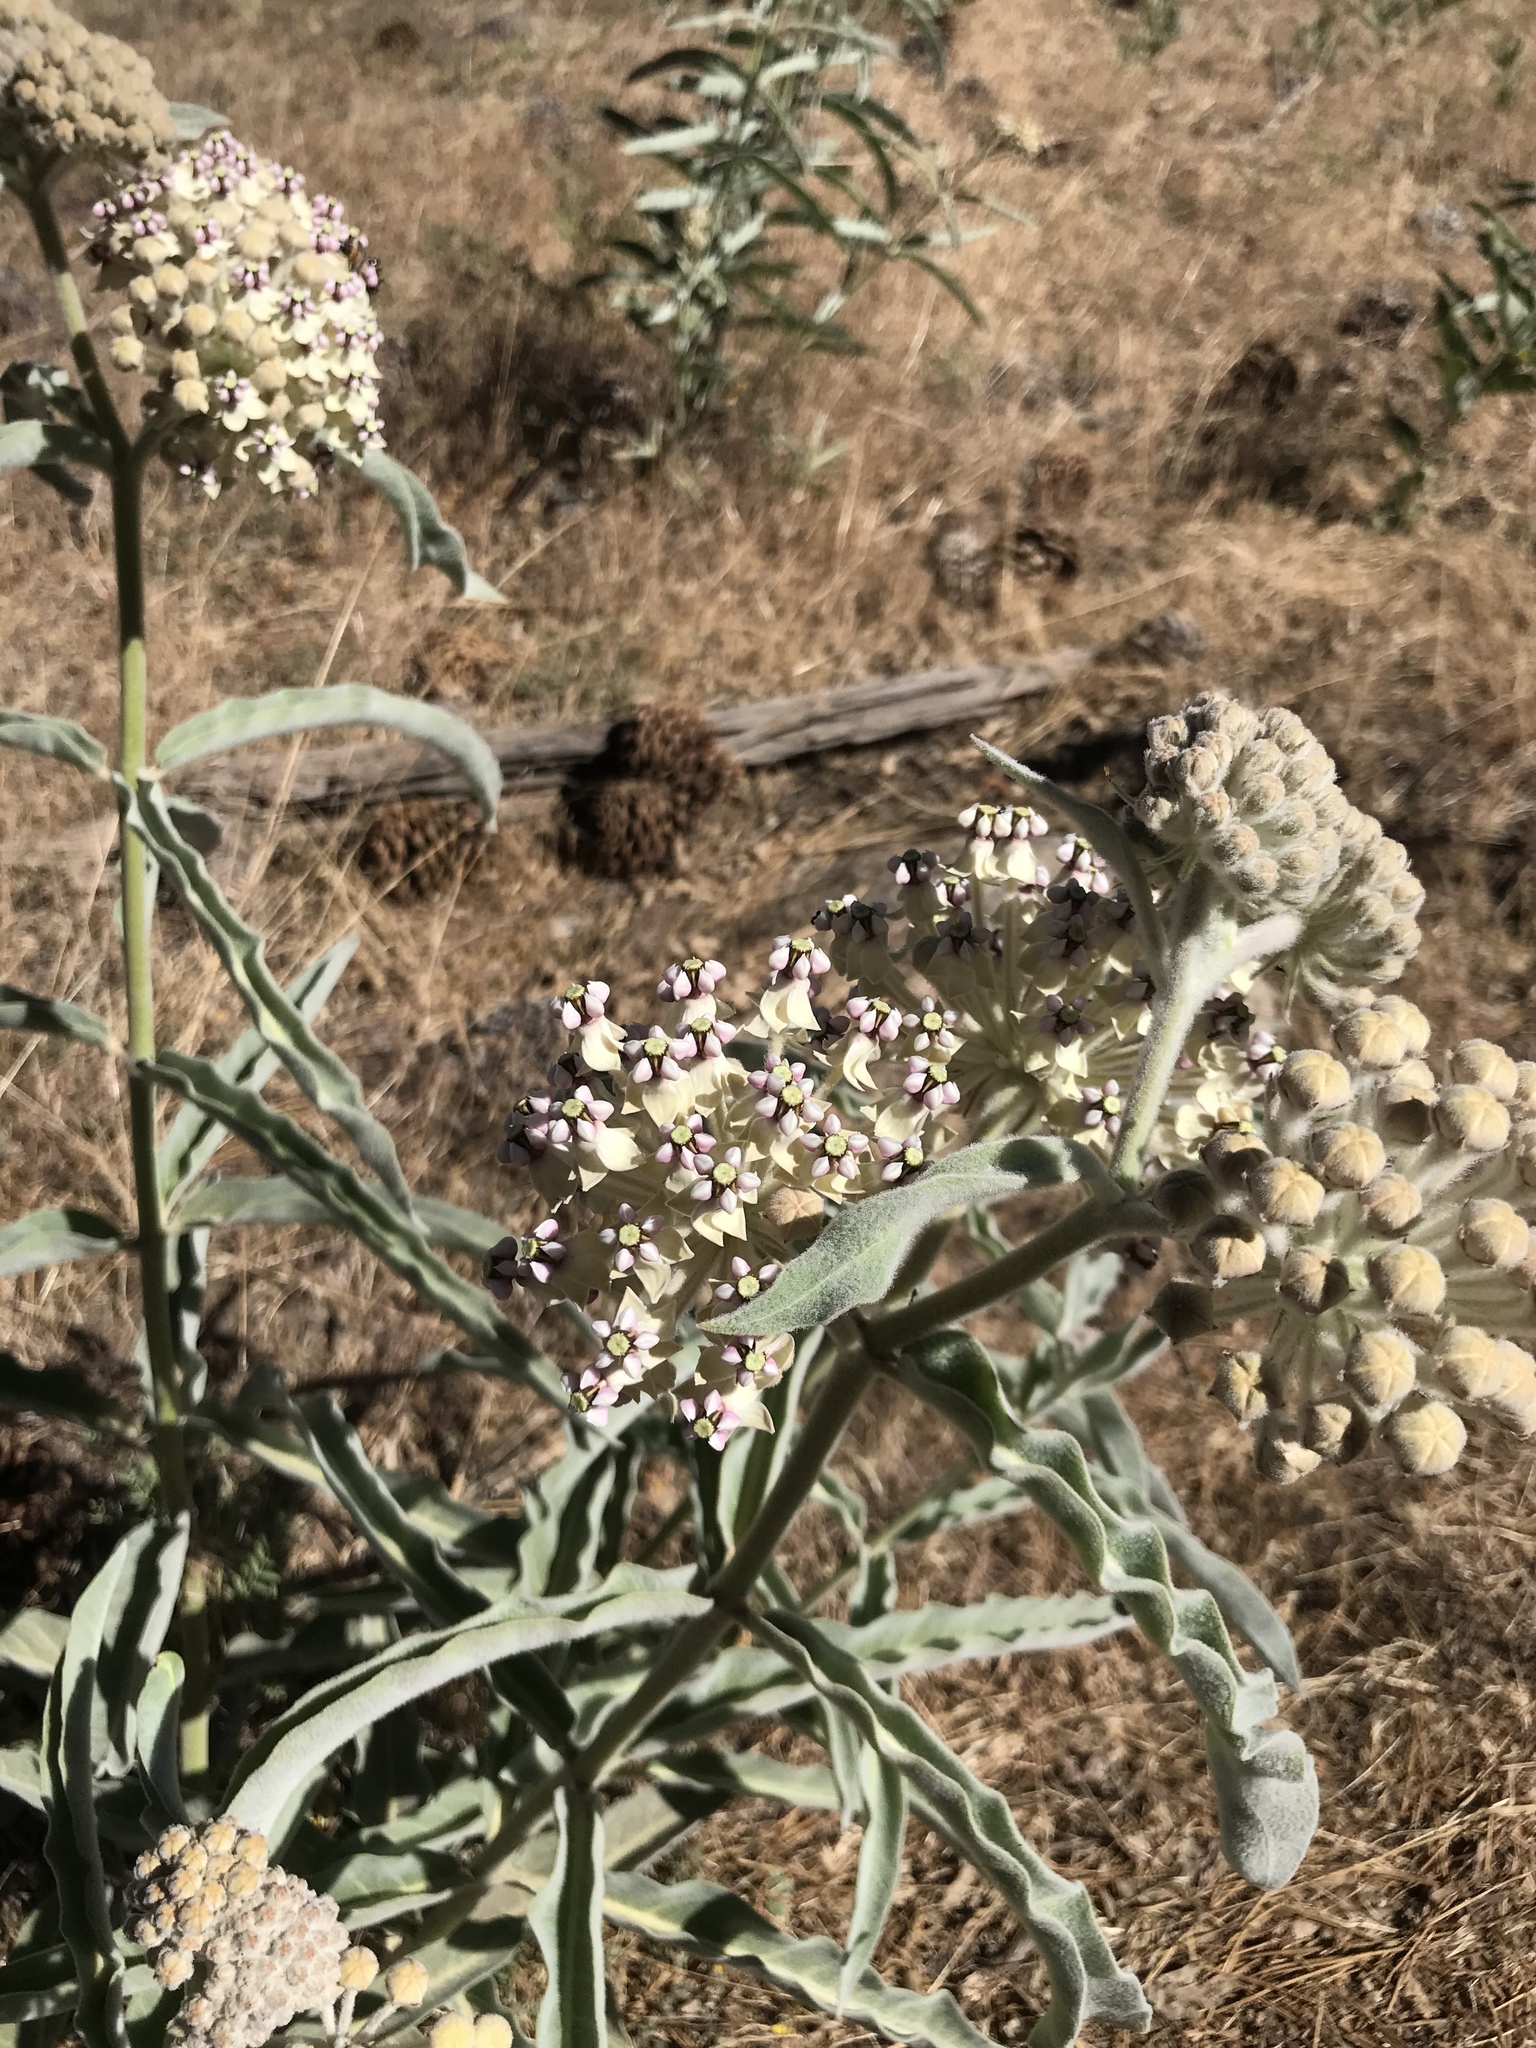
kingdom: Plantae
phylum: Tracheophyta
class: Magnoliopsida
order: Gentianales
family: Apocynaceae
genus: Asclepias
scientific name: Asclepias eriocarpa
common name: Indian milkweed
